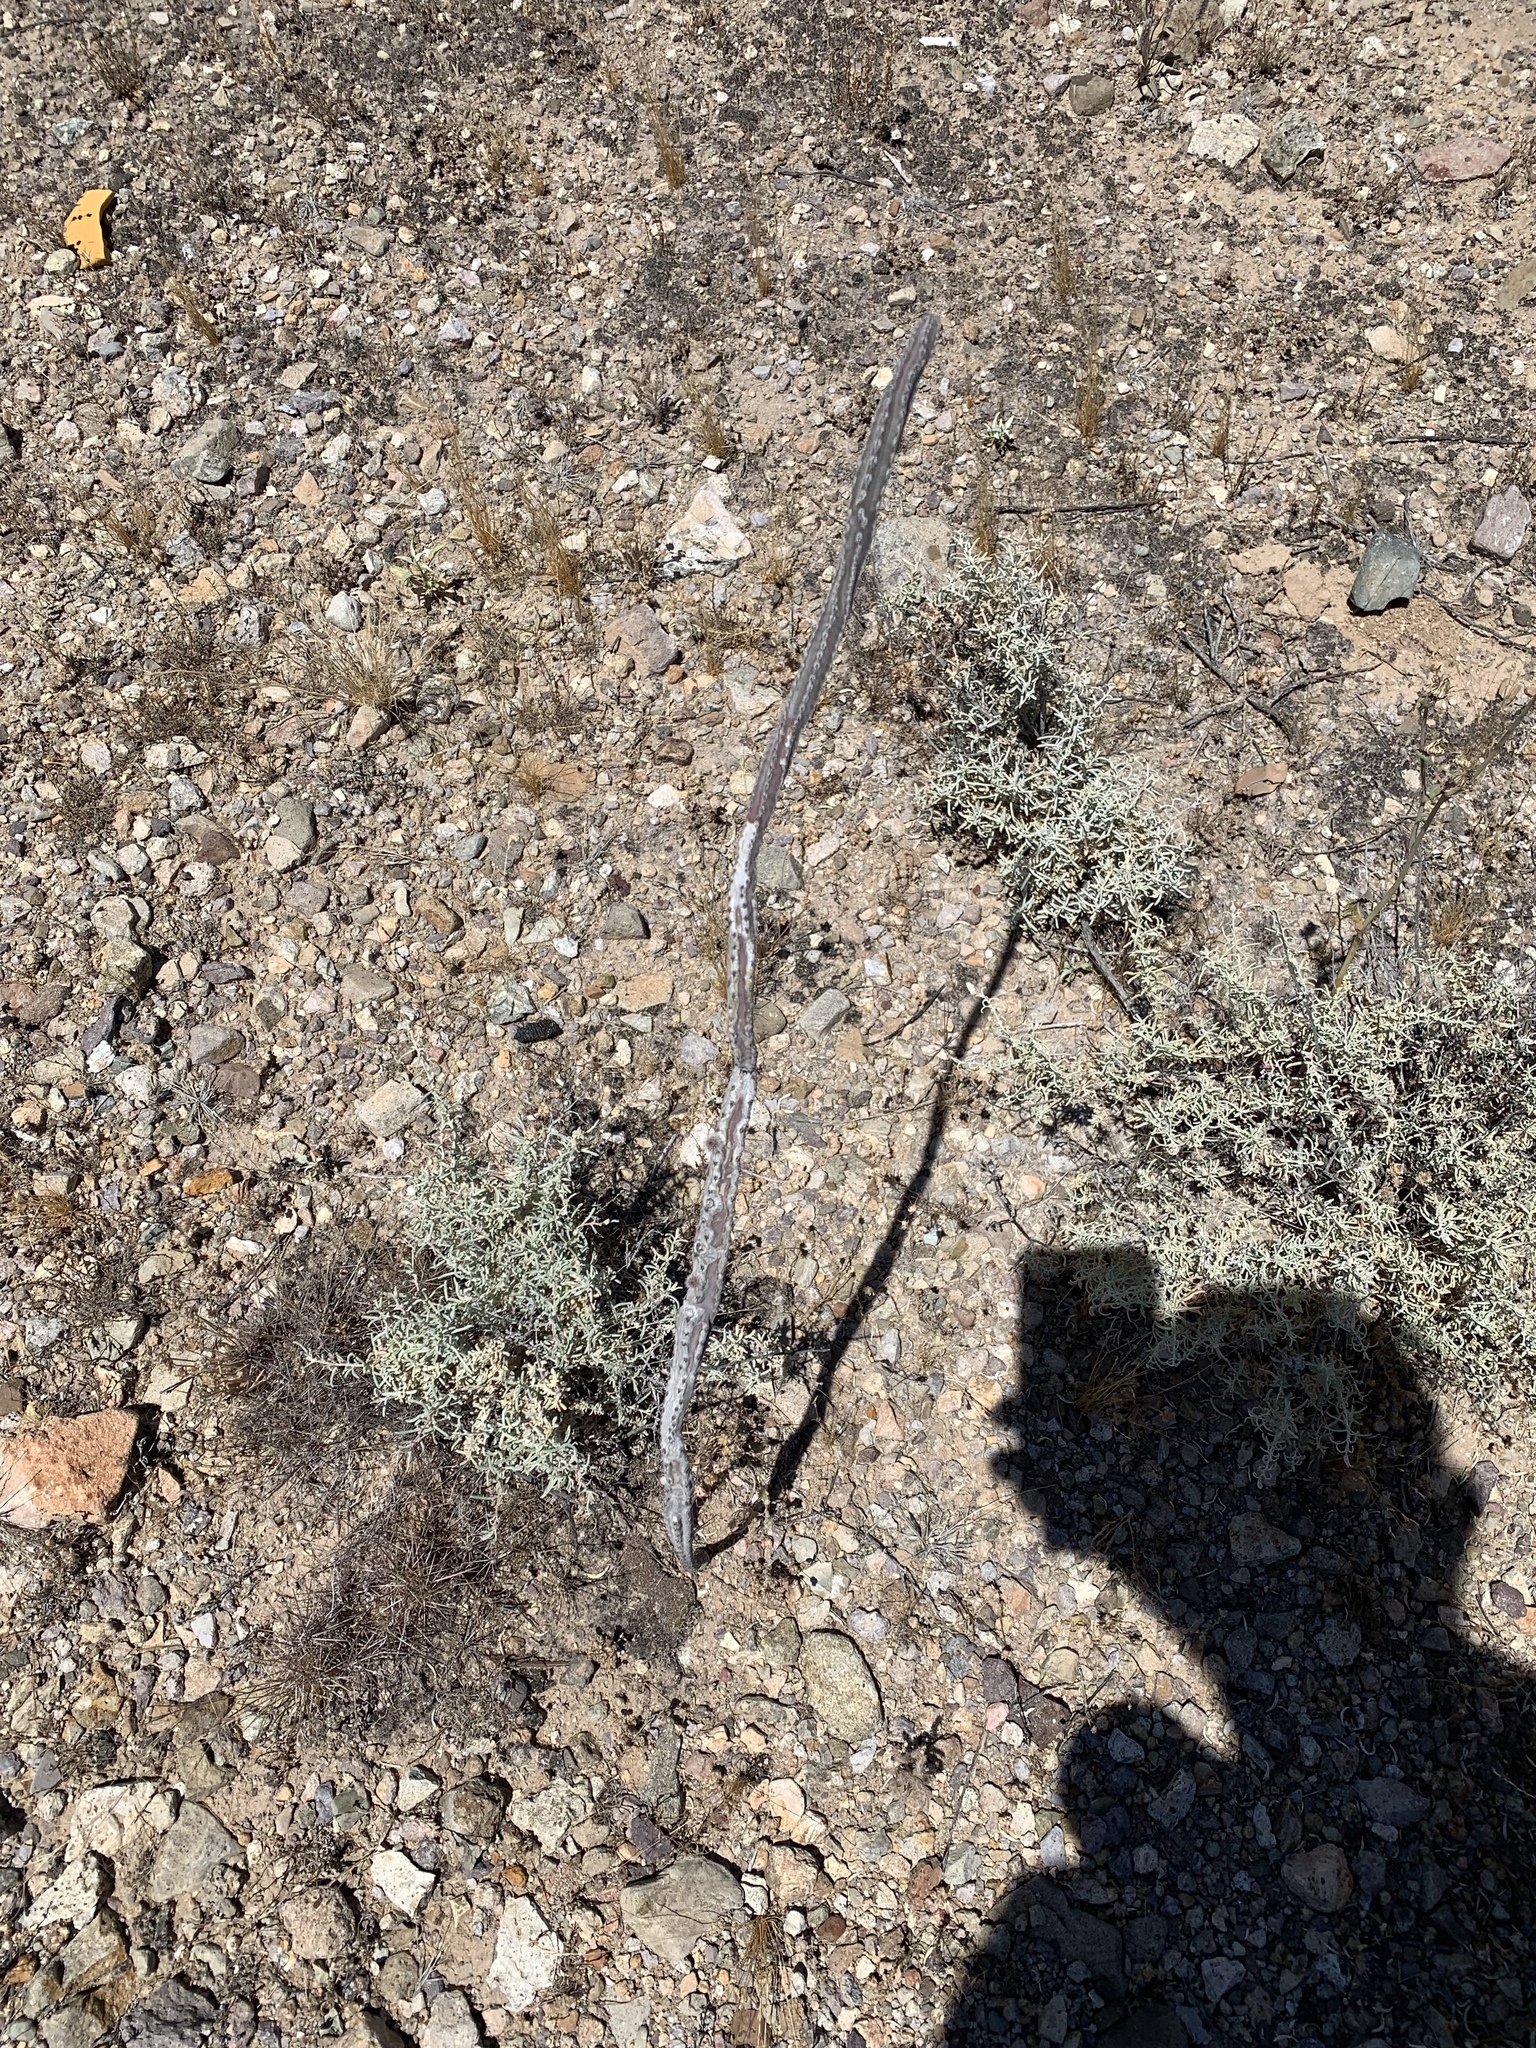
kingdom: Plantae
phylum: Tracheophyta
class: Magnoliopsida
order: Caryophyllales
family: Cactaceae
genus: Peniocereus
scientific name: Peniocereus greggii
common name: Desert night-blooming cereus
